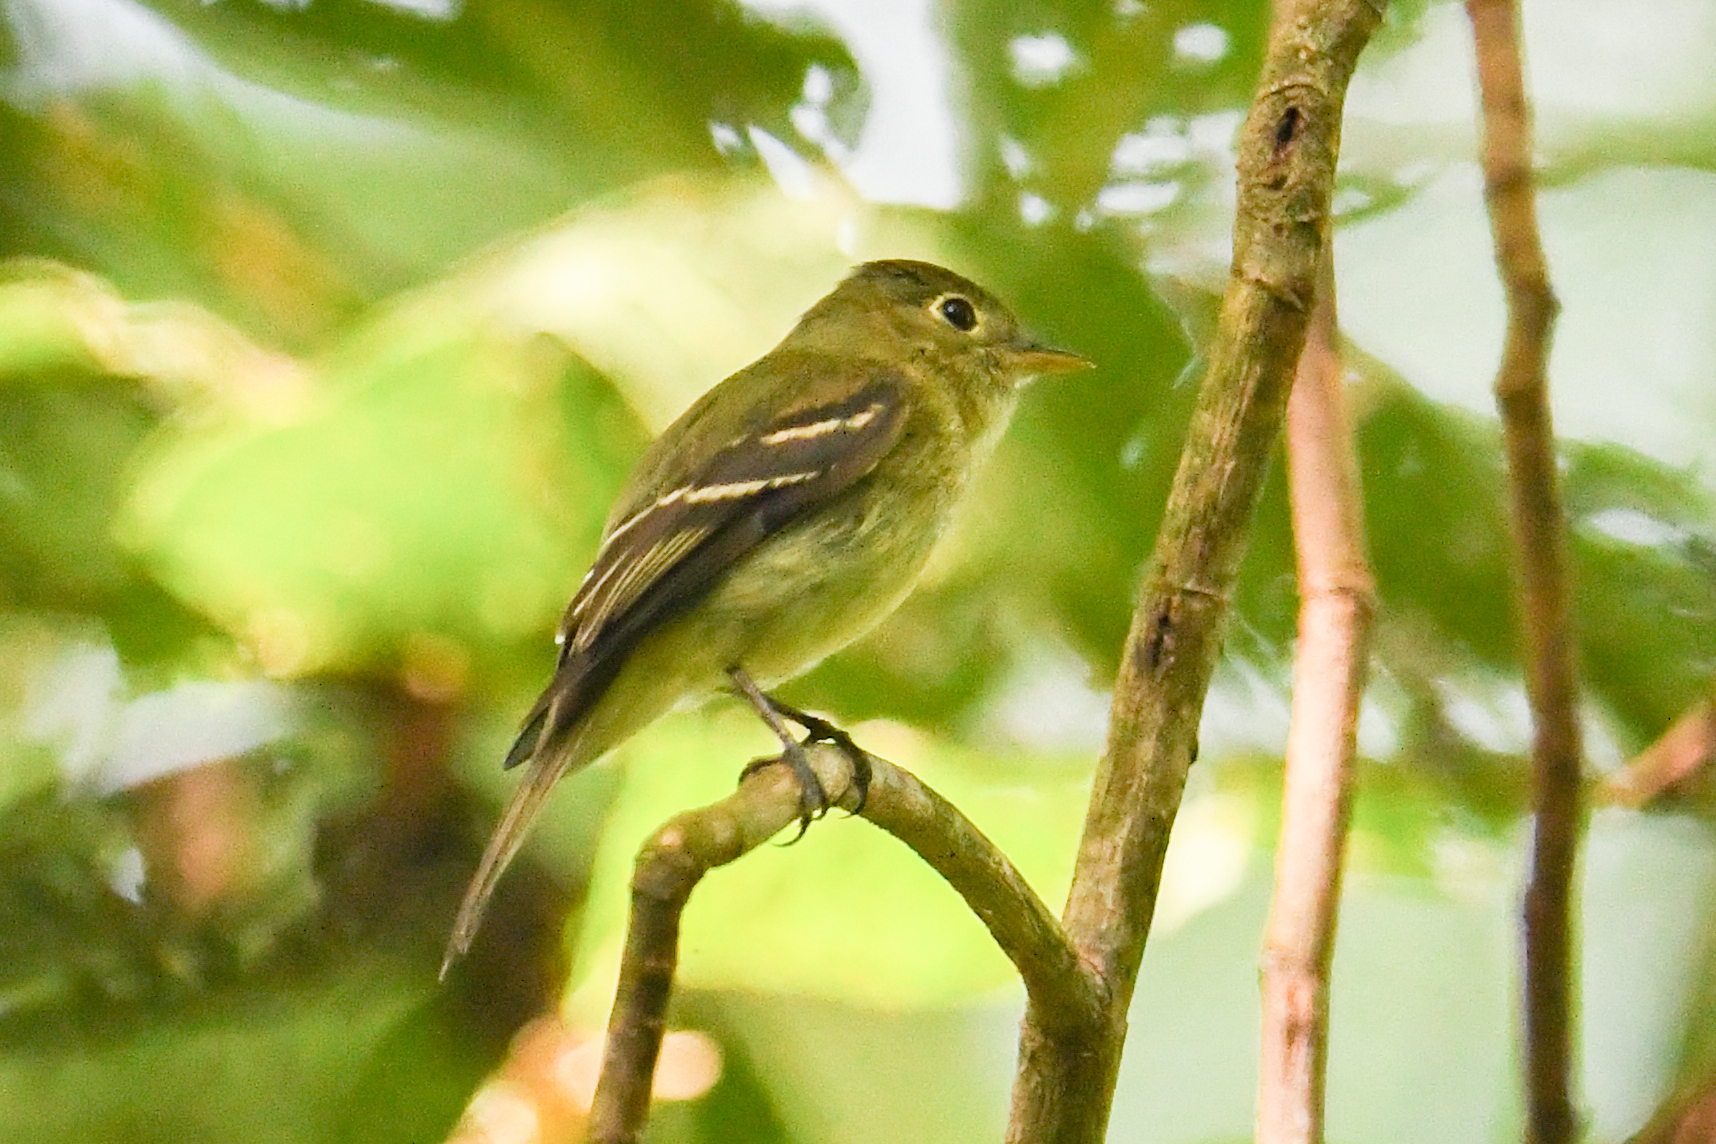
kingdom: Animalia
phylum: Chordata
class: Aves
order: Passeriformes
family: Tyrannidae
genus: Empidonax
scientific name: Empidonax flaviventris
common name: Yellow-bellied flycatcher
